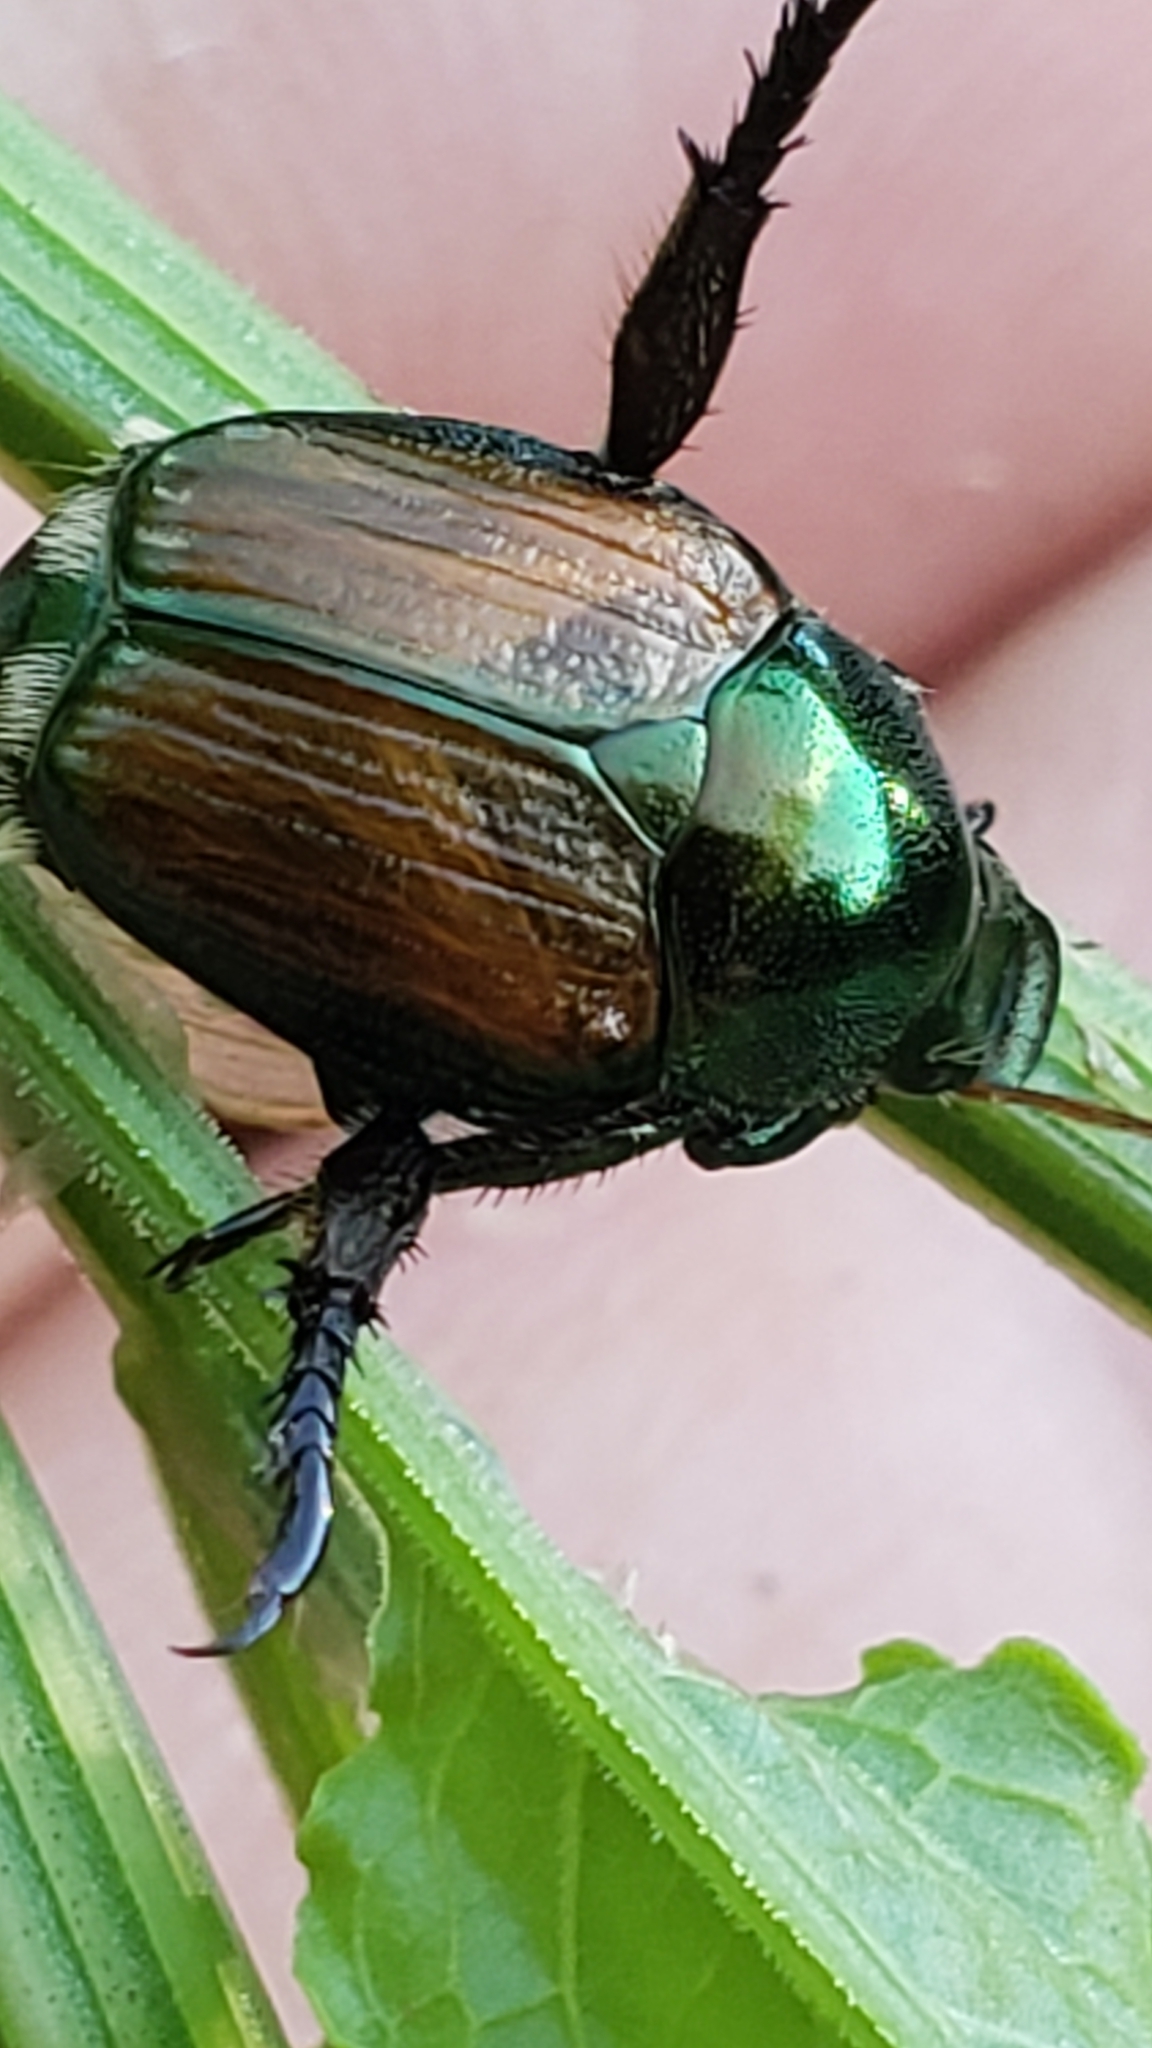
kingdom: Animalia
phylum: Arthropoda
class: Insecta
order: Coleoptera
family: Scarabaeidae
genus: Popillia
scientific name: Popillia japonica
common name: Japanese beetle
